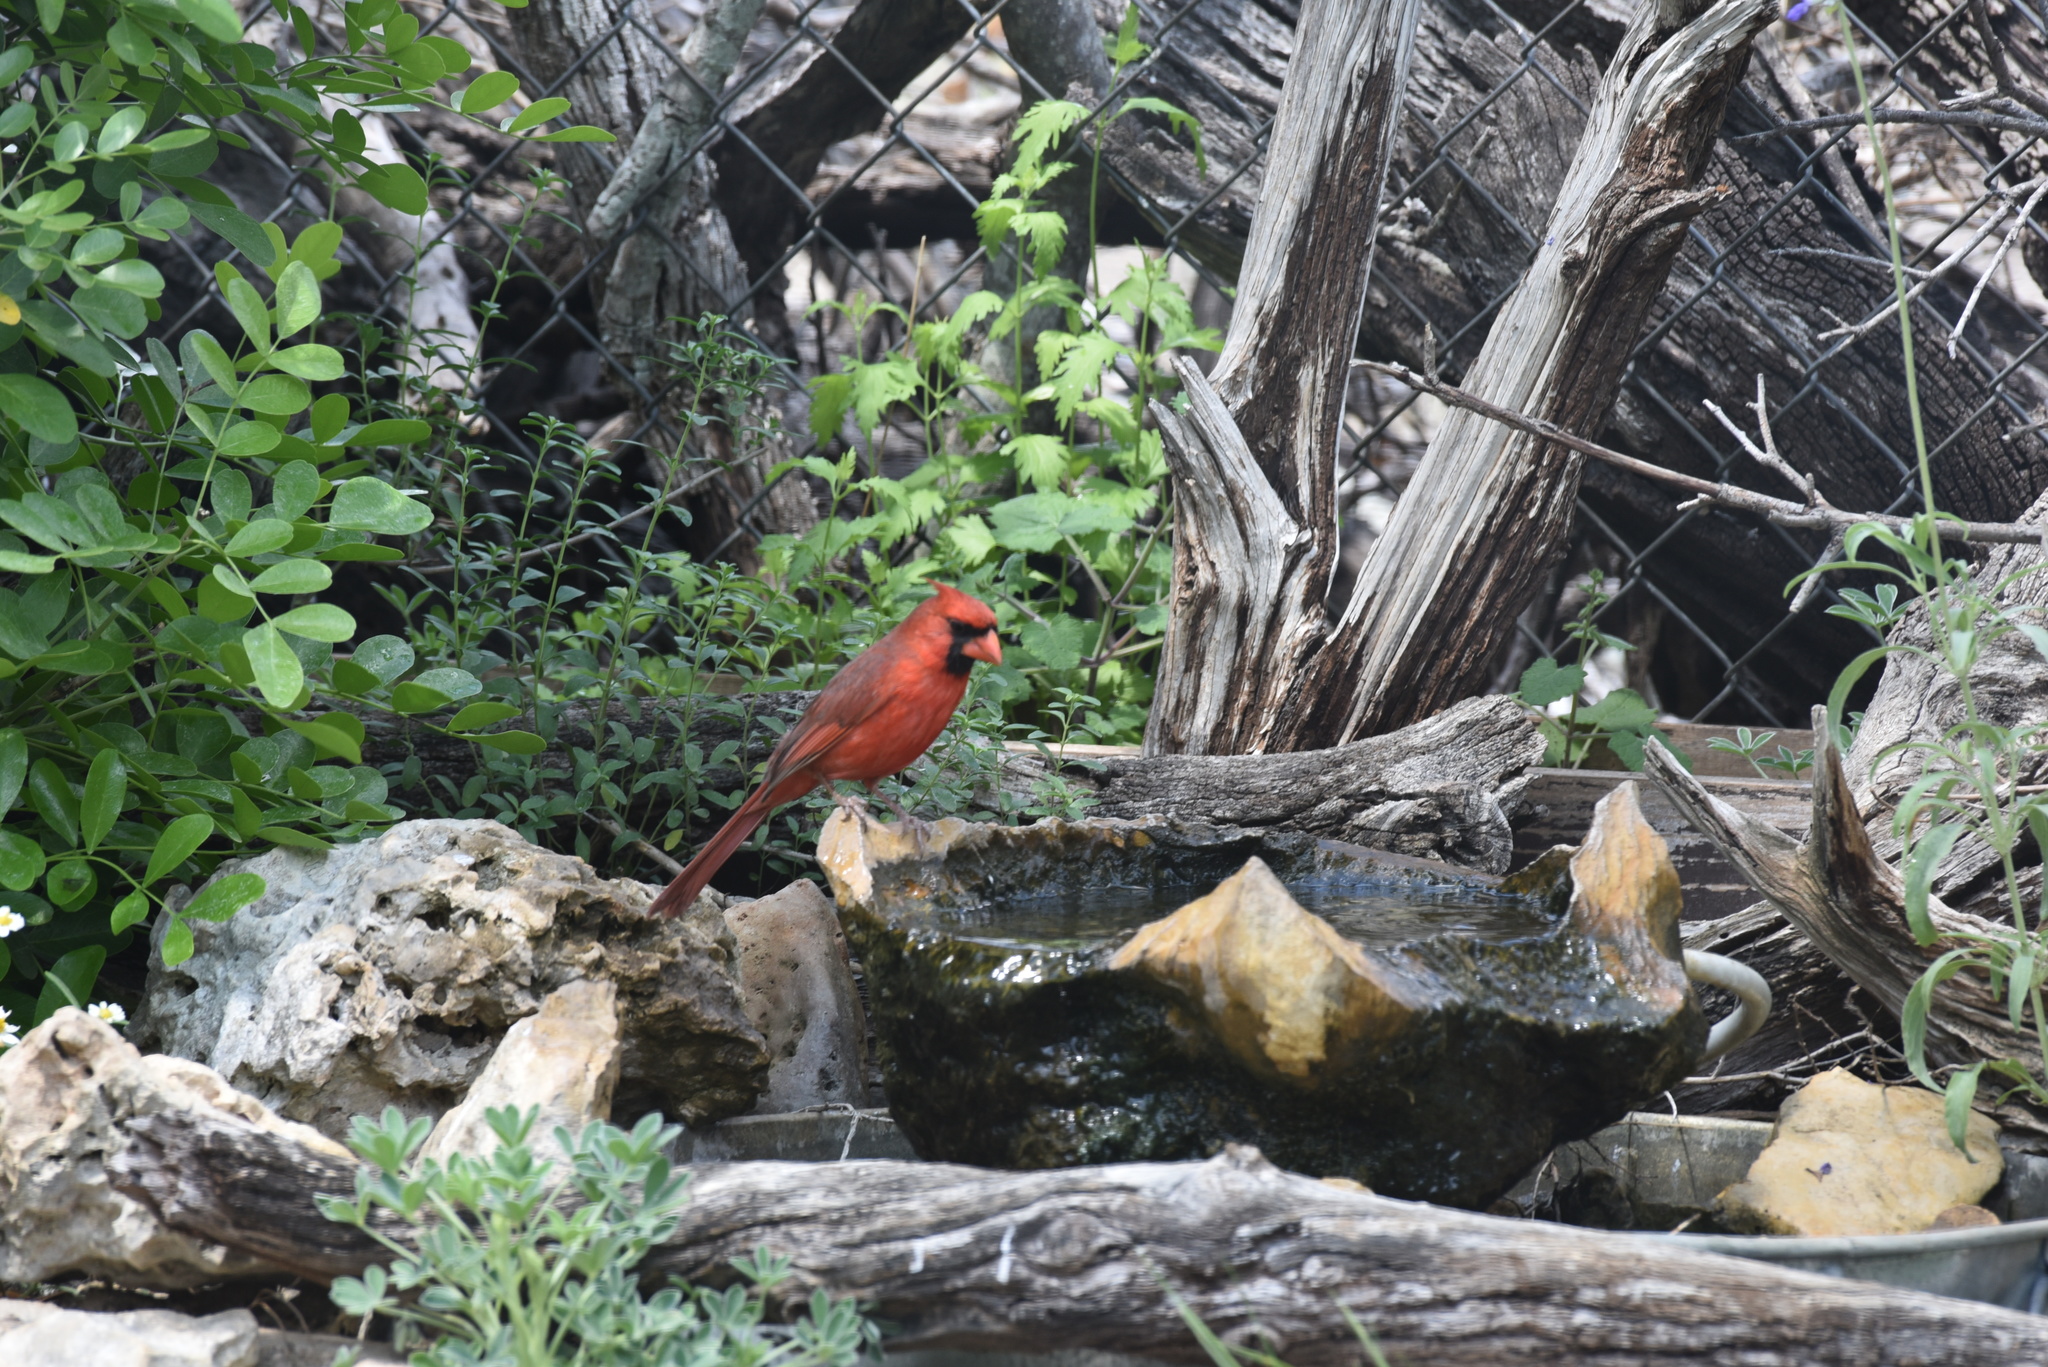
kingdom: Animalia
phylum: Chordata
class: Aves
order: Passeriformes
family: Cardinalidae
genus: Cardinalis
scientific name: Cardinalis cardinalis
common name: Northern cardinal
